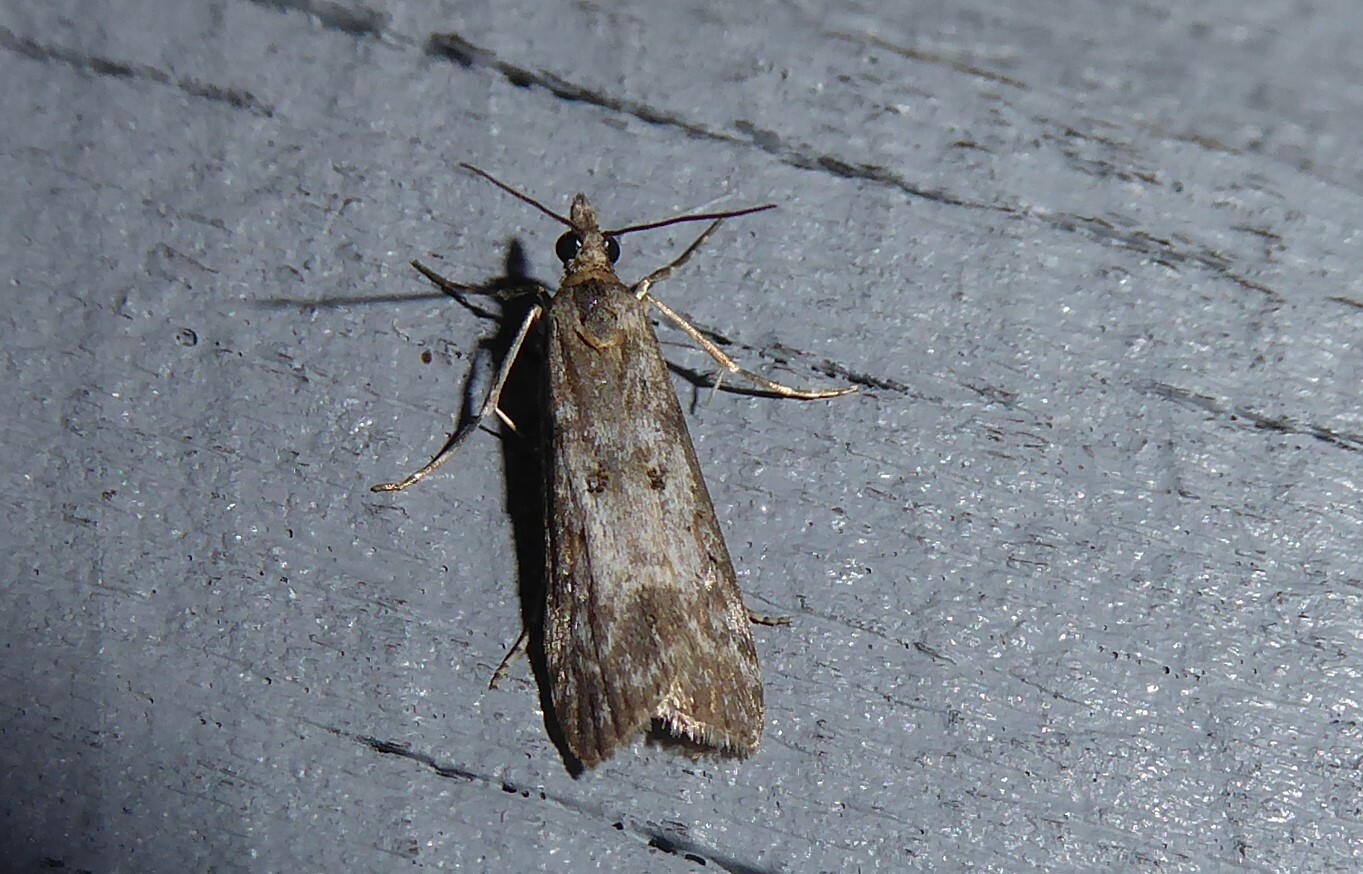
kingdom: Animalia
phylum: Arthropoda
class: Insecta
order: Lepidoptera
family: Crambidae
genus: Eudonia
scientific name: Eudonia leptalea
